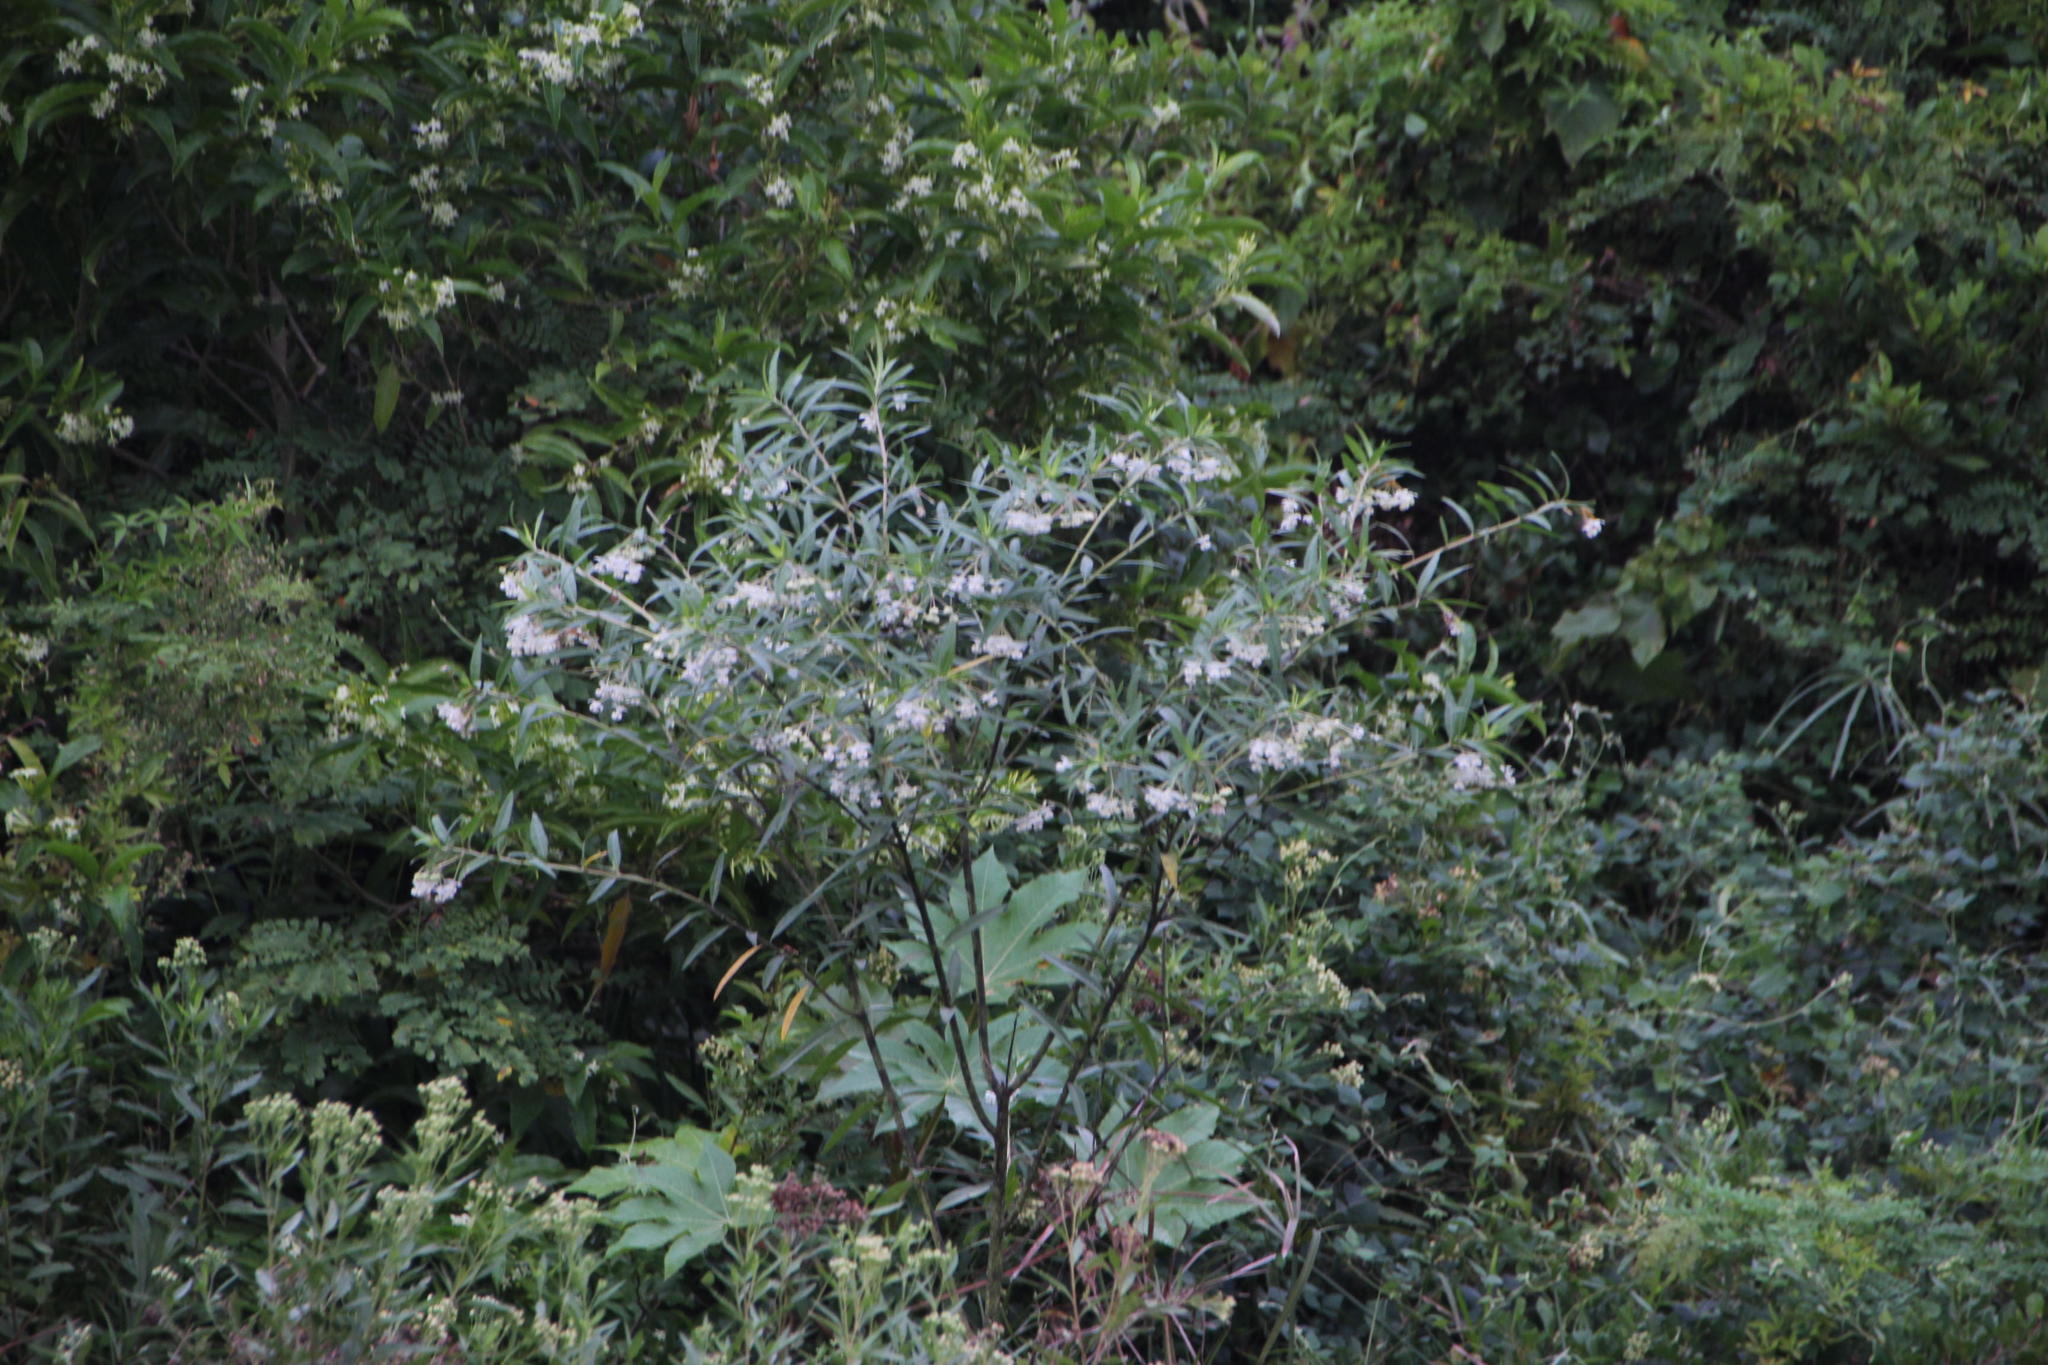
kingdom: Plantae
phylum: Tracheophyta
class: Magnoliopsida
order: Gentianales
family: Apocynaceae
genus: Gomphocarpus
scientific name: Gomphocarpus physocarpus
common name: Balloon cotton bush
